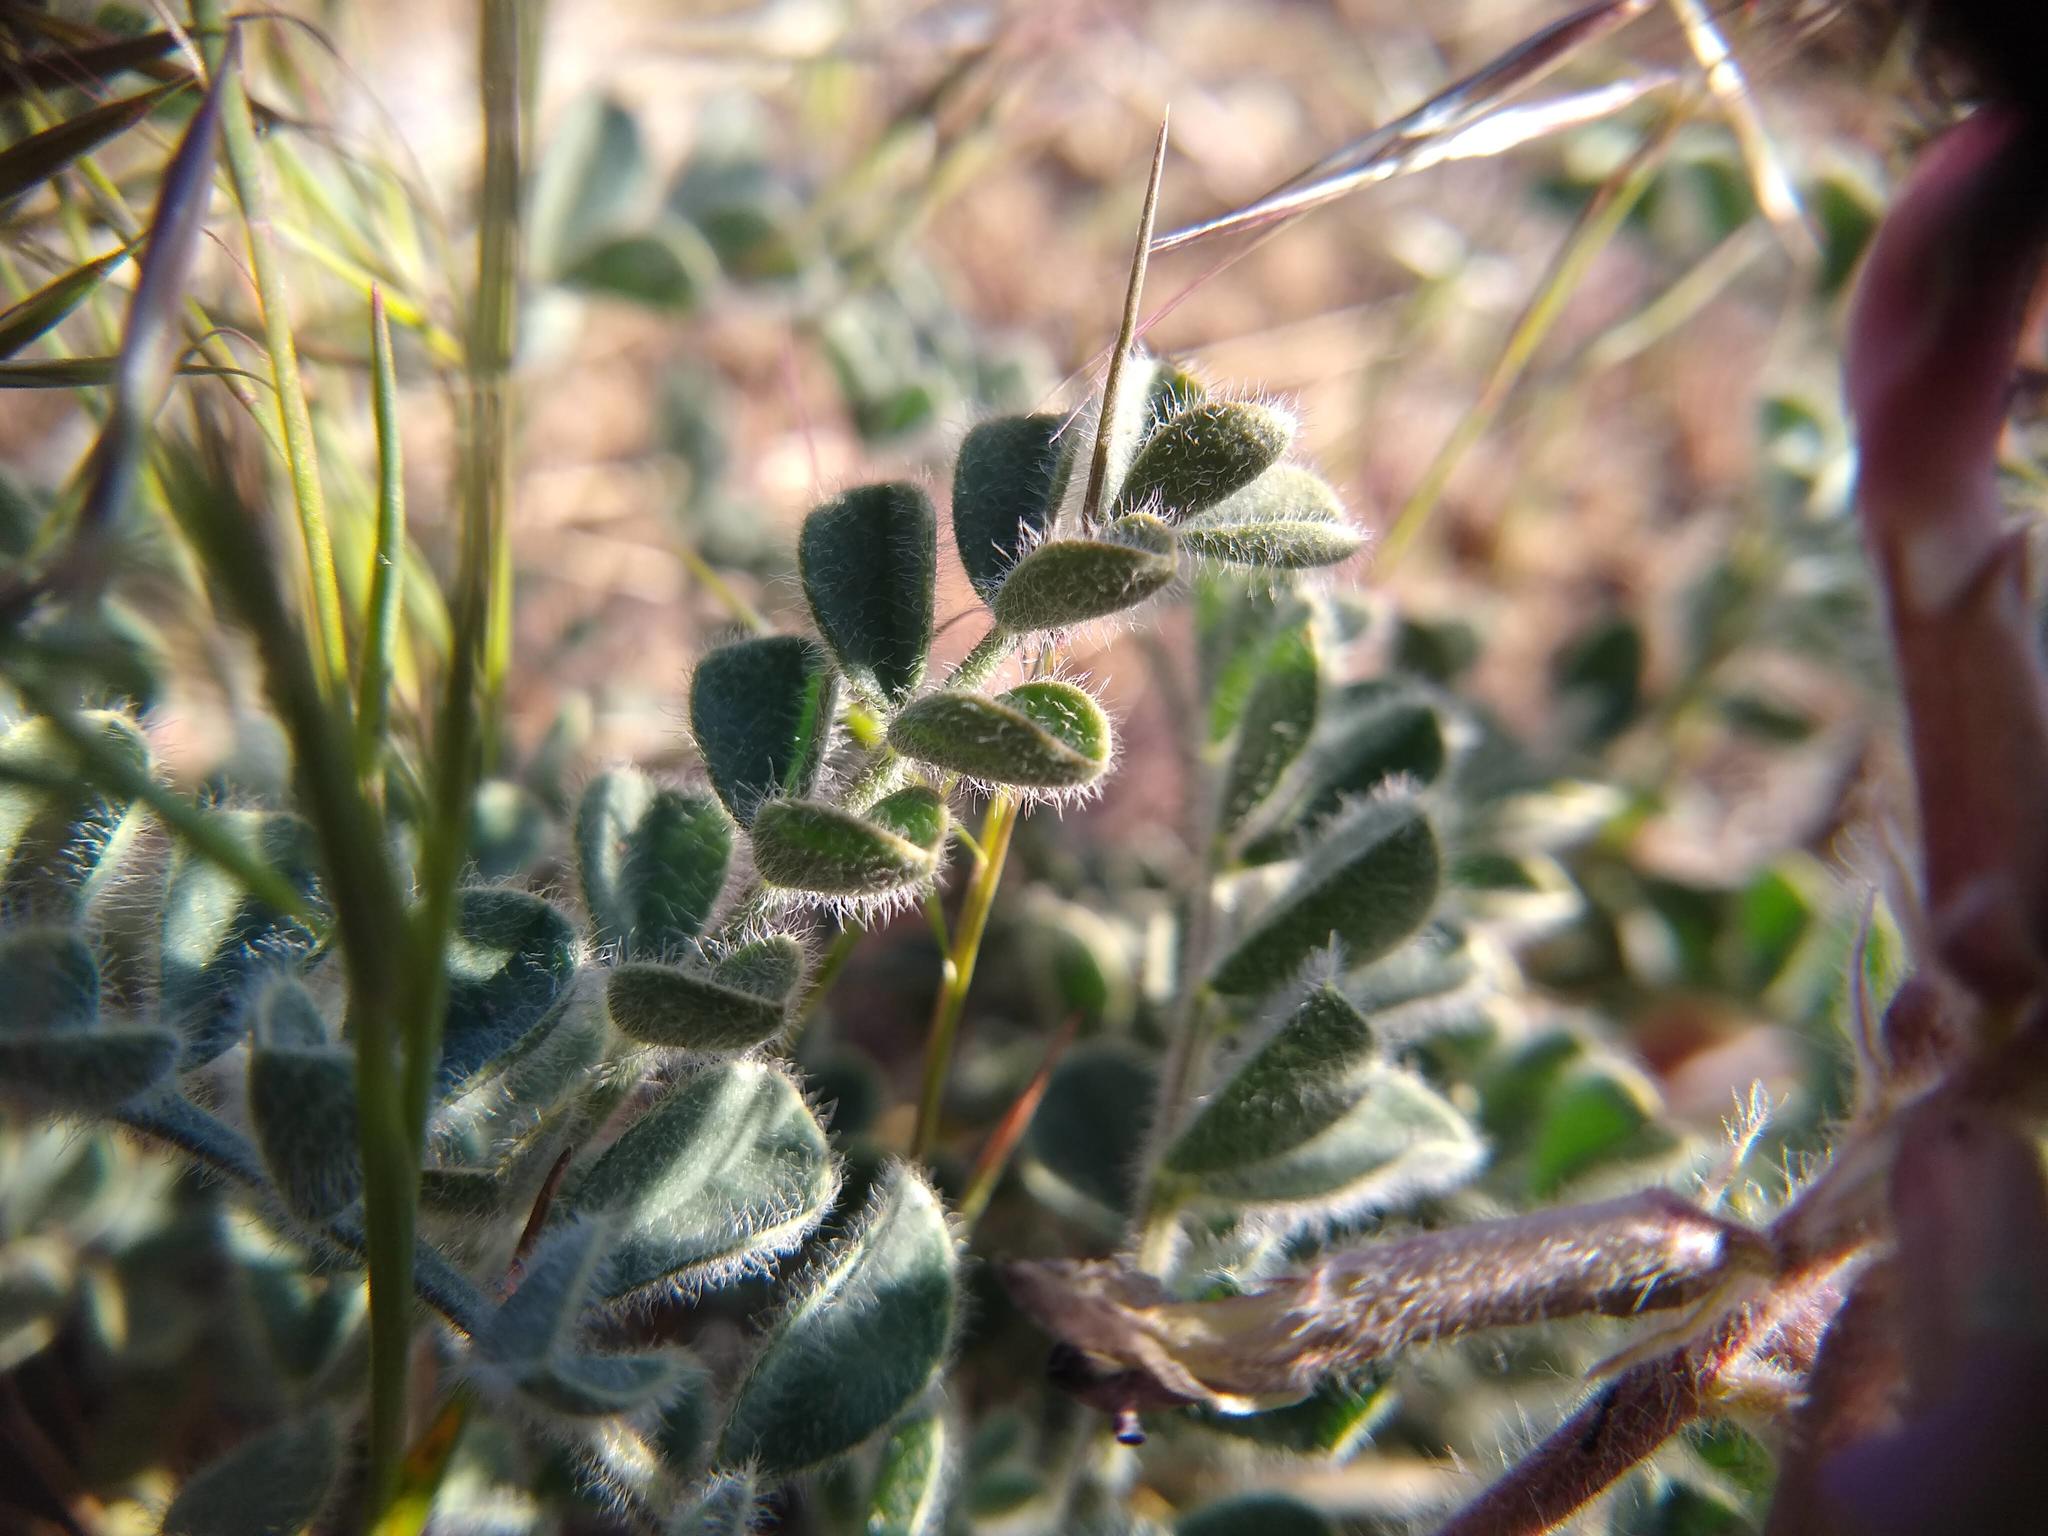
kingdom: Plantae
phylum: Tracheophyta
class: Magnoliopsida
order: Fabales
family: Fabaceae
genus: Astragalus
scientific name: Astragalus malacus
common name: Shaggy milk-vetch
